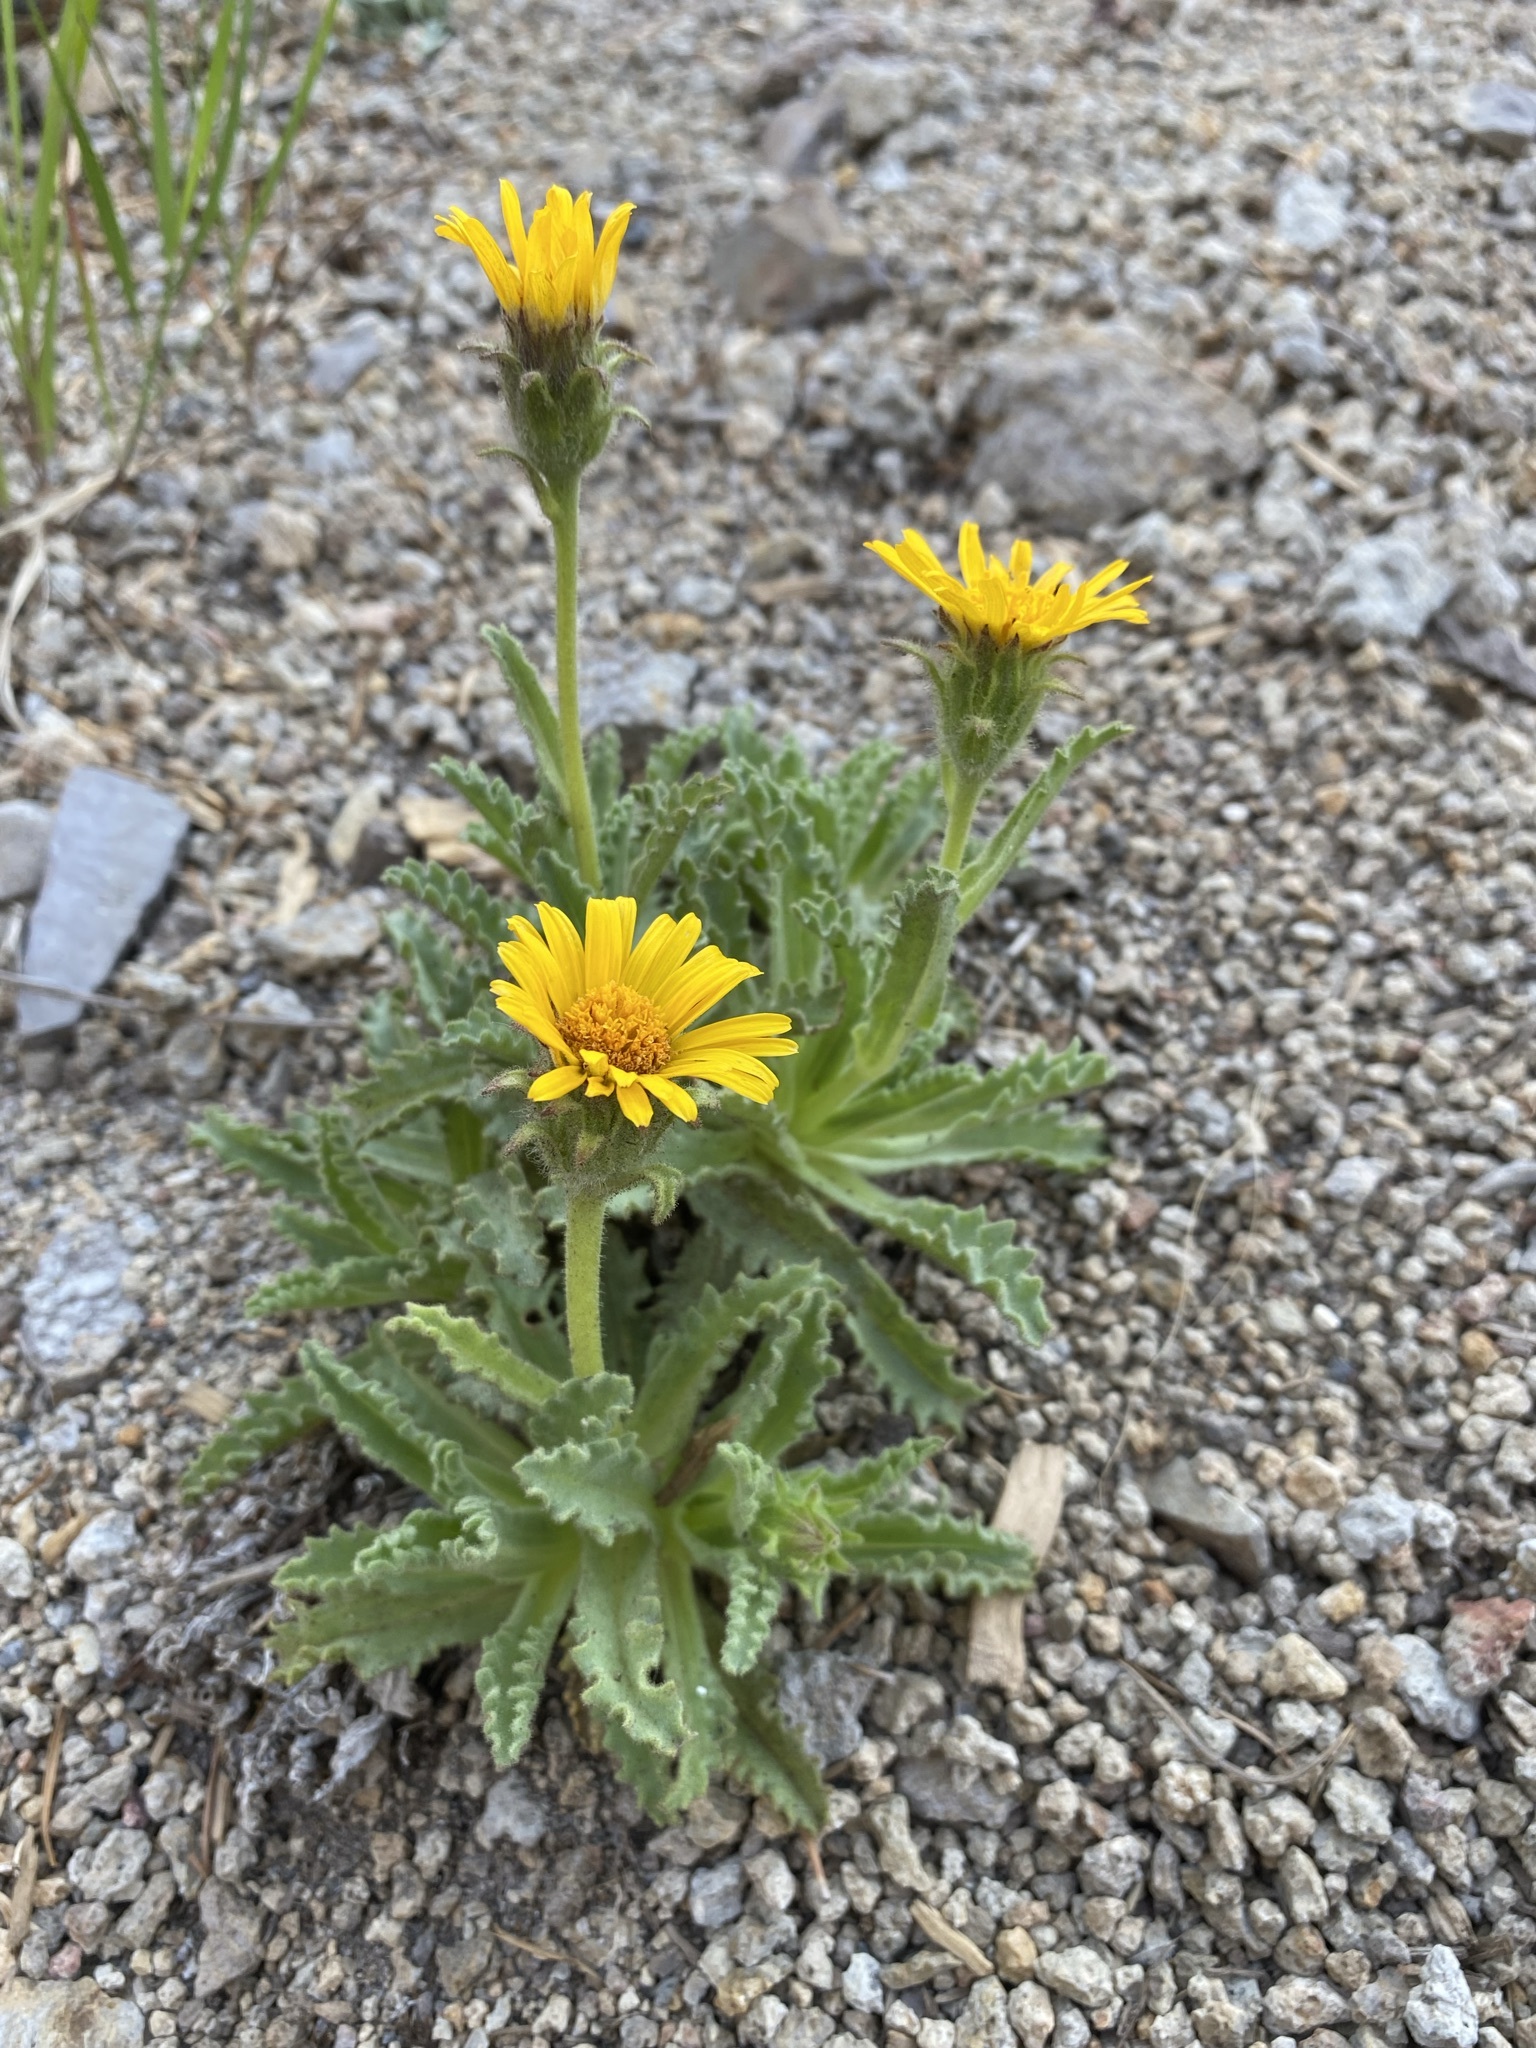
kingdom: Plantae
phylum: Tracheophyta
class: Magnoliopsida
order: Asterales
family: Asteraceae
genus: Hulsea
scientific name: Hulsea algida
